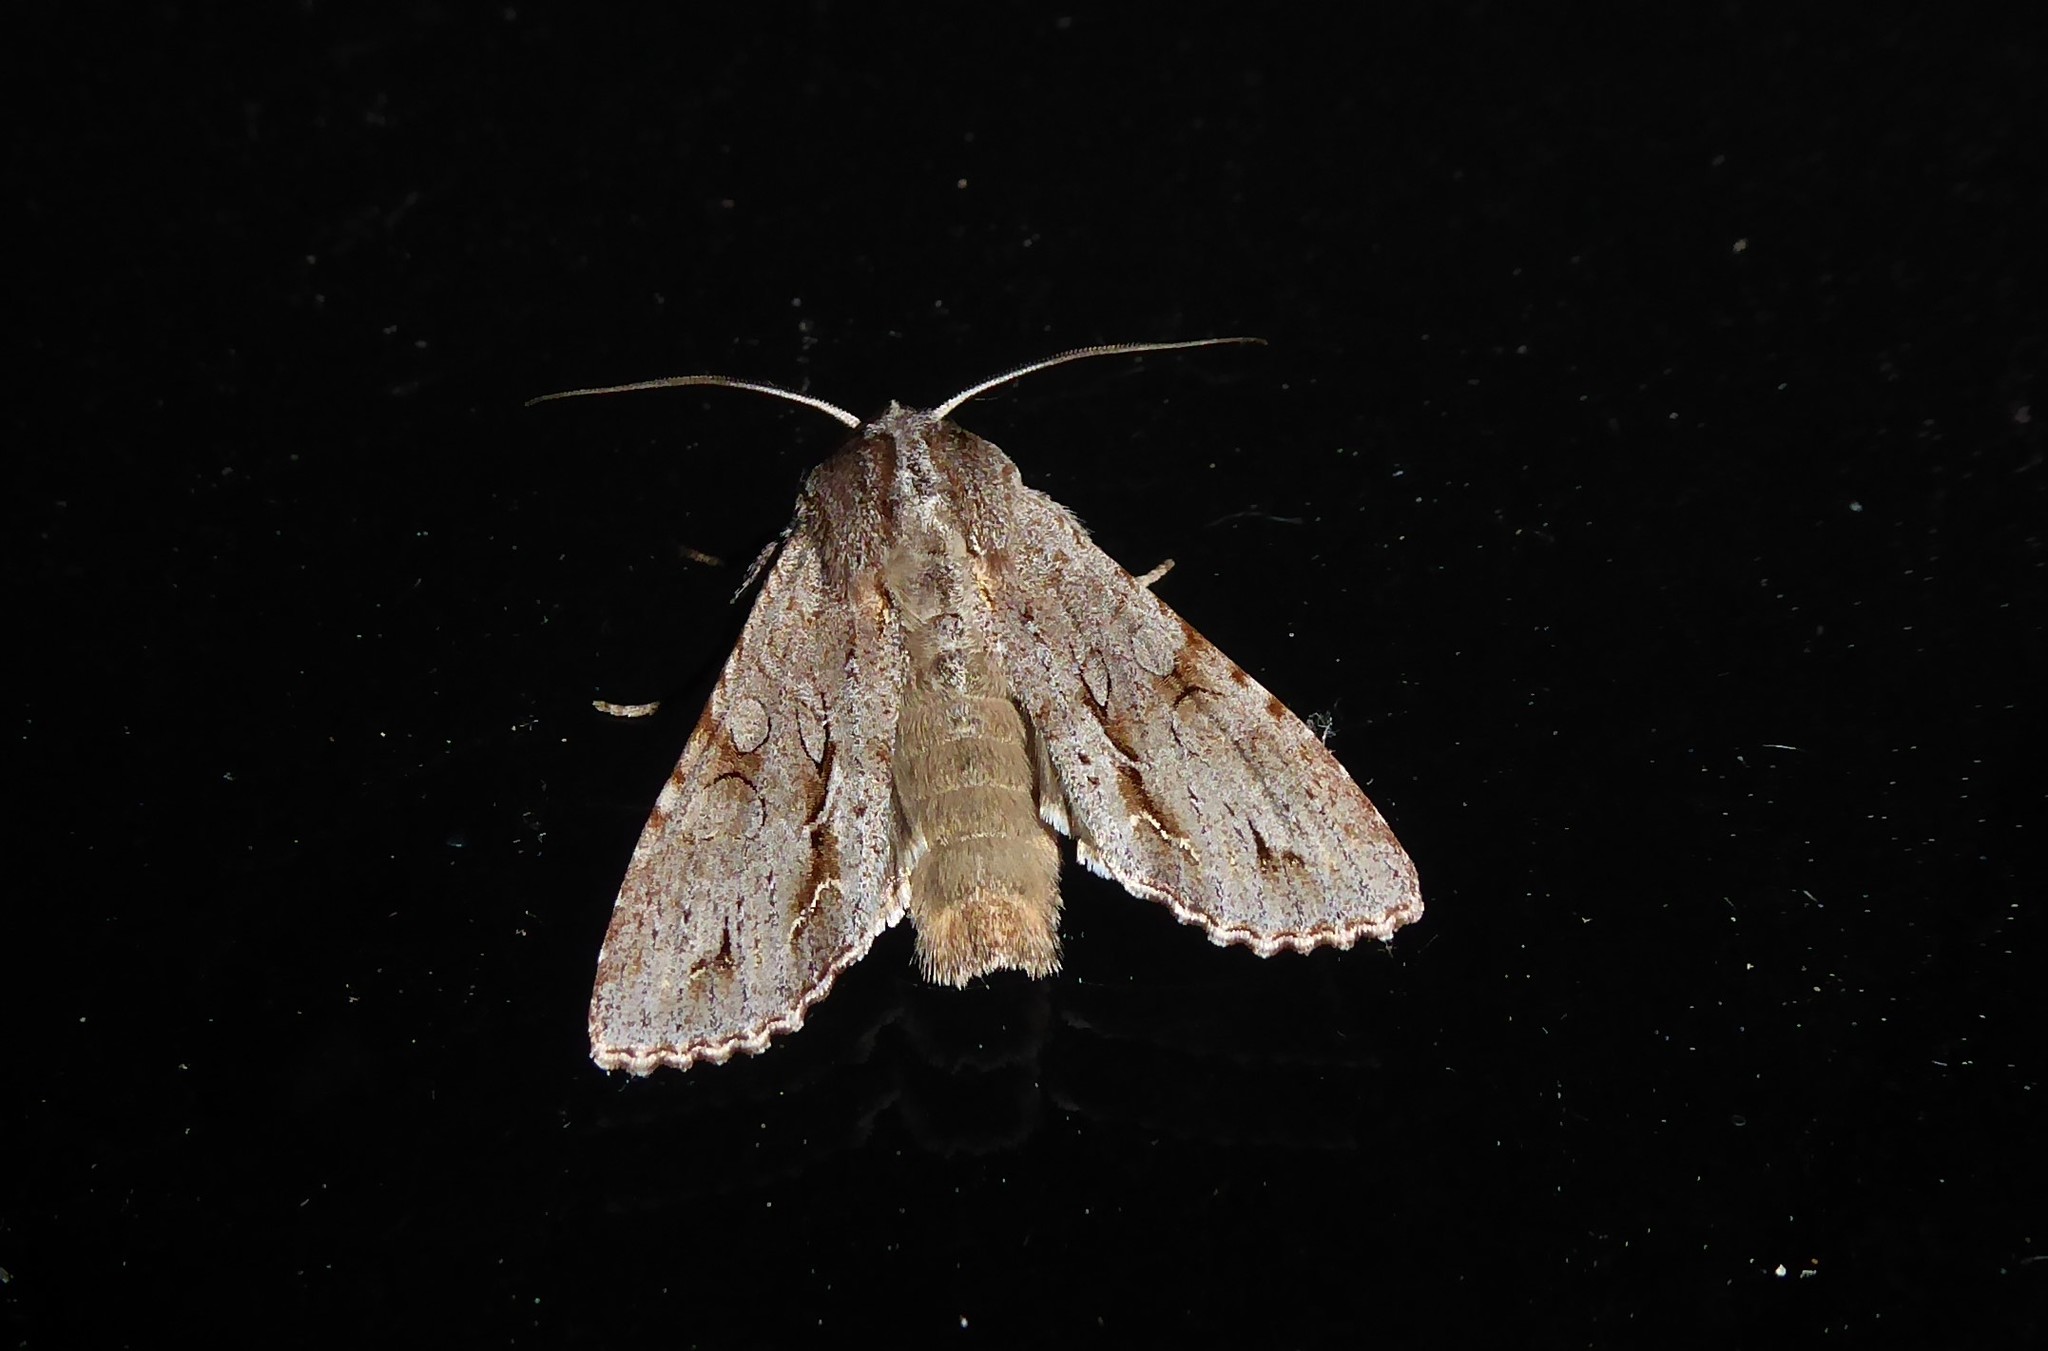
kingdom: Animalia
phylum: Arthropoda
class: Insecta
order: Lepidoptera
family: Noctuidae
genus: Ichneutica
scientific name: Ichneutica
